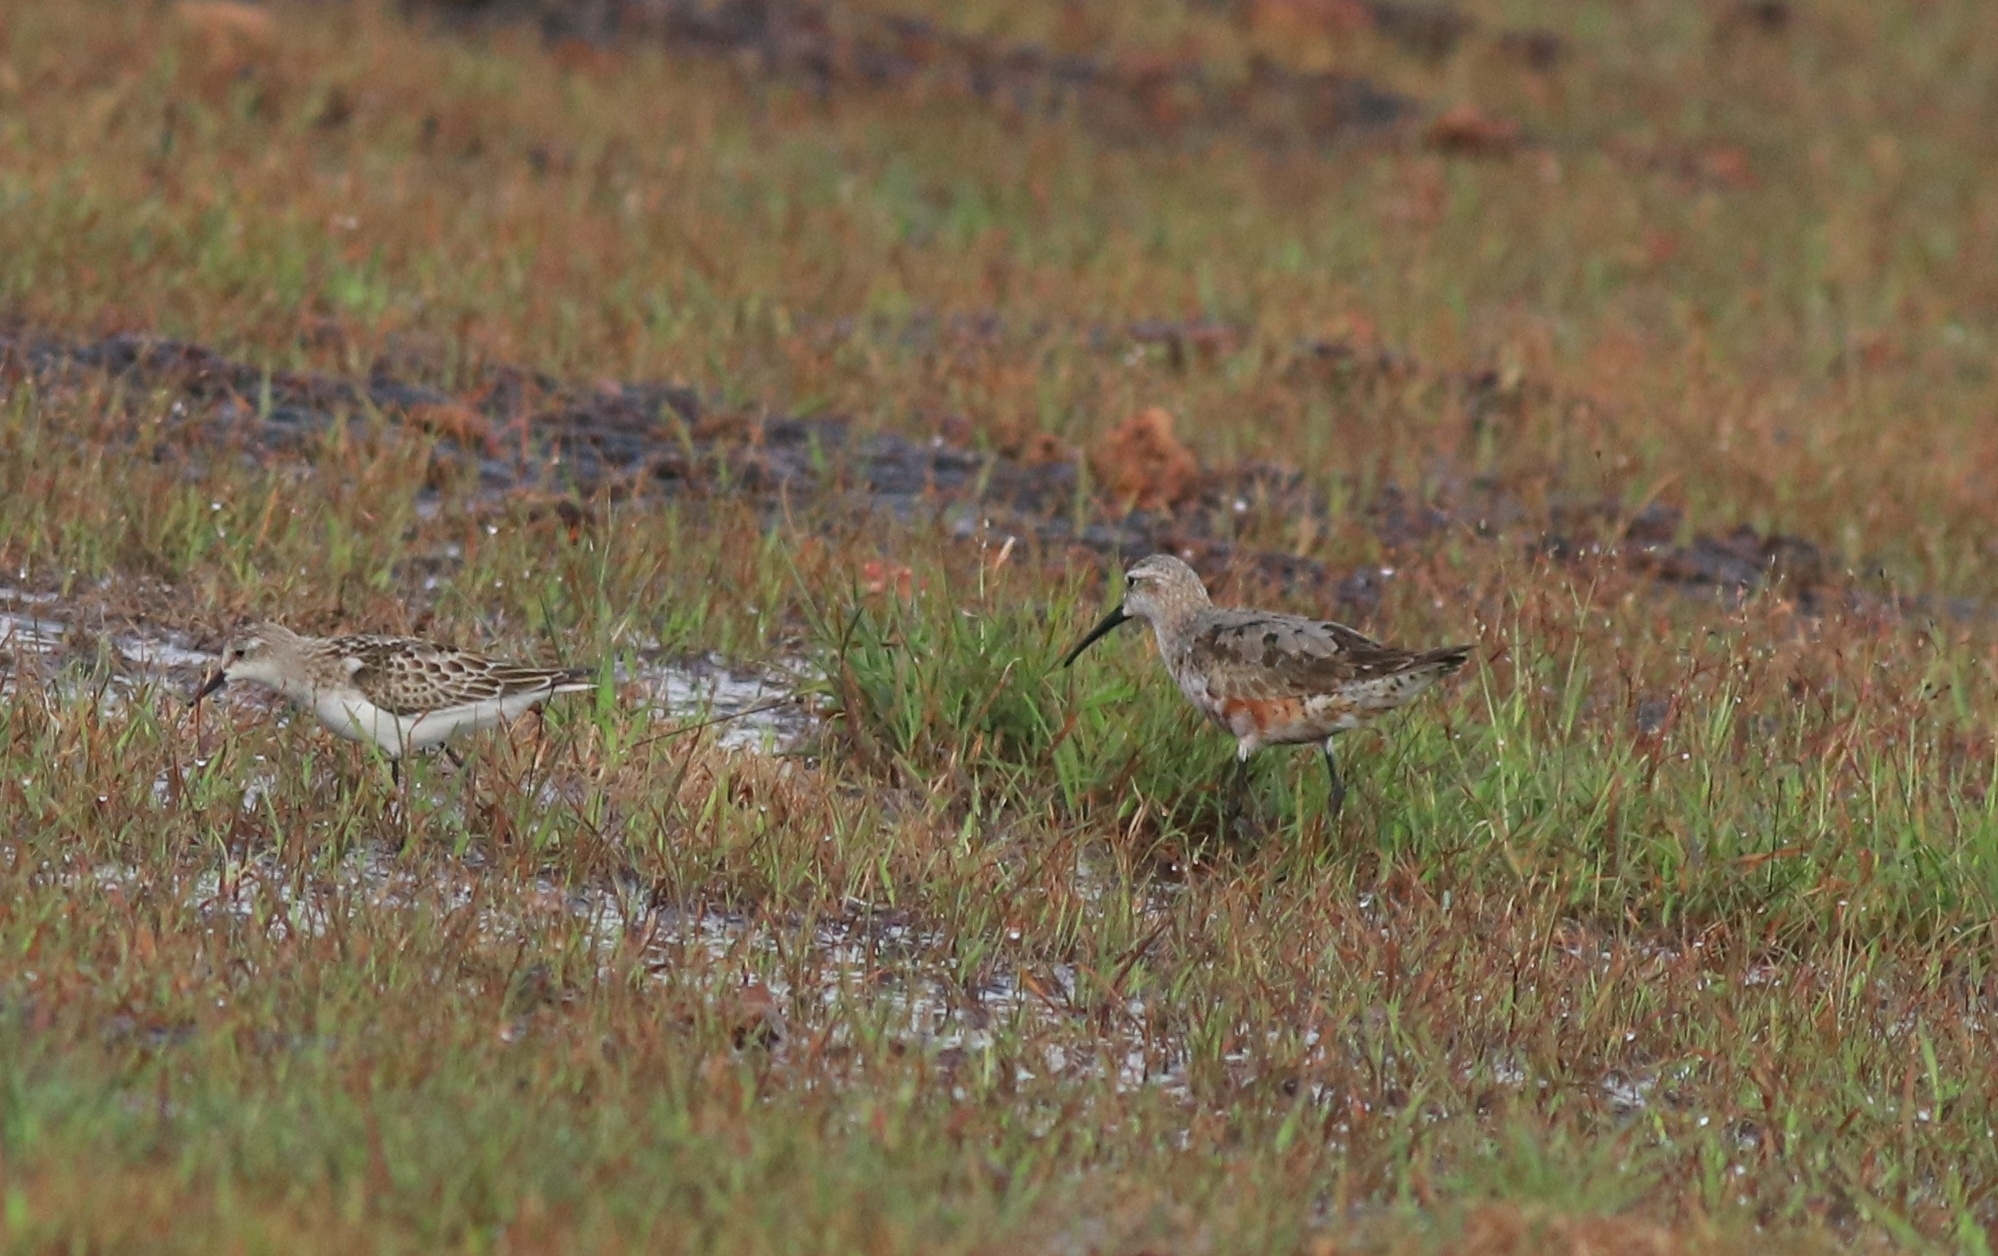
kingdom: Animalia
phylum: Chordata
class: Aves
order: Charadriiformes
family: Scolopacidae
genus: Calidris
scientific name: Calidris ferruginea
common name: Curlew sandpiper
